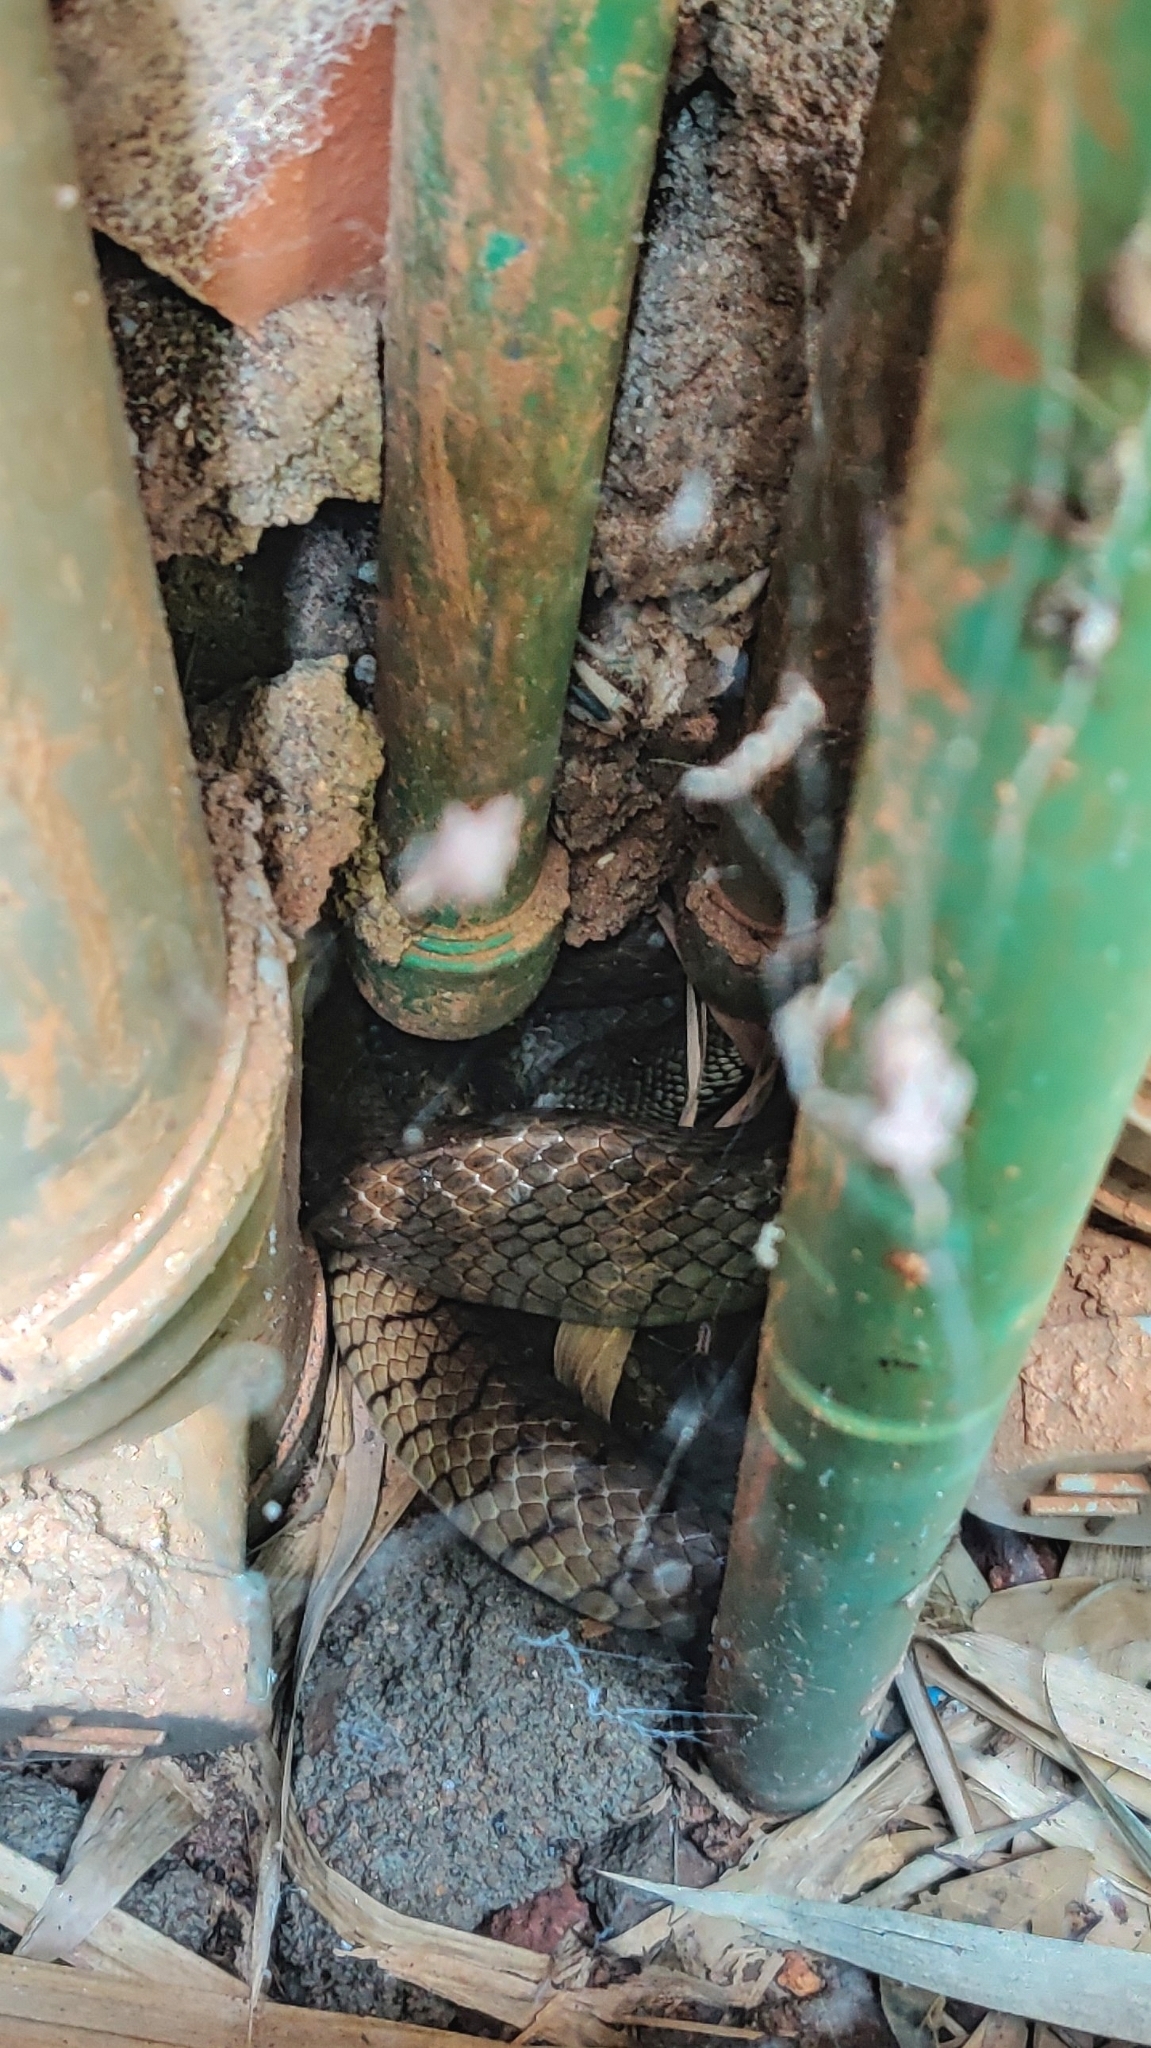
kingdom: Animalia
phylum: Chordata
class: Squamata
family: Colubridae
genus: Ptyas
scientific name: Ptyas mucosa
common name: Oriental ratsnake
